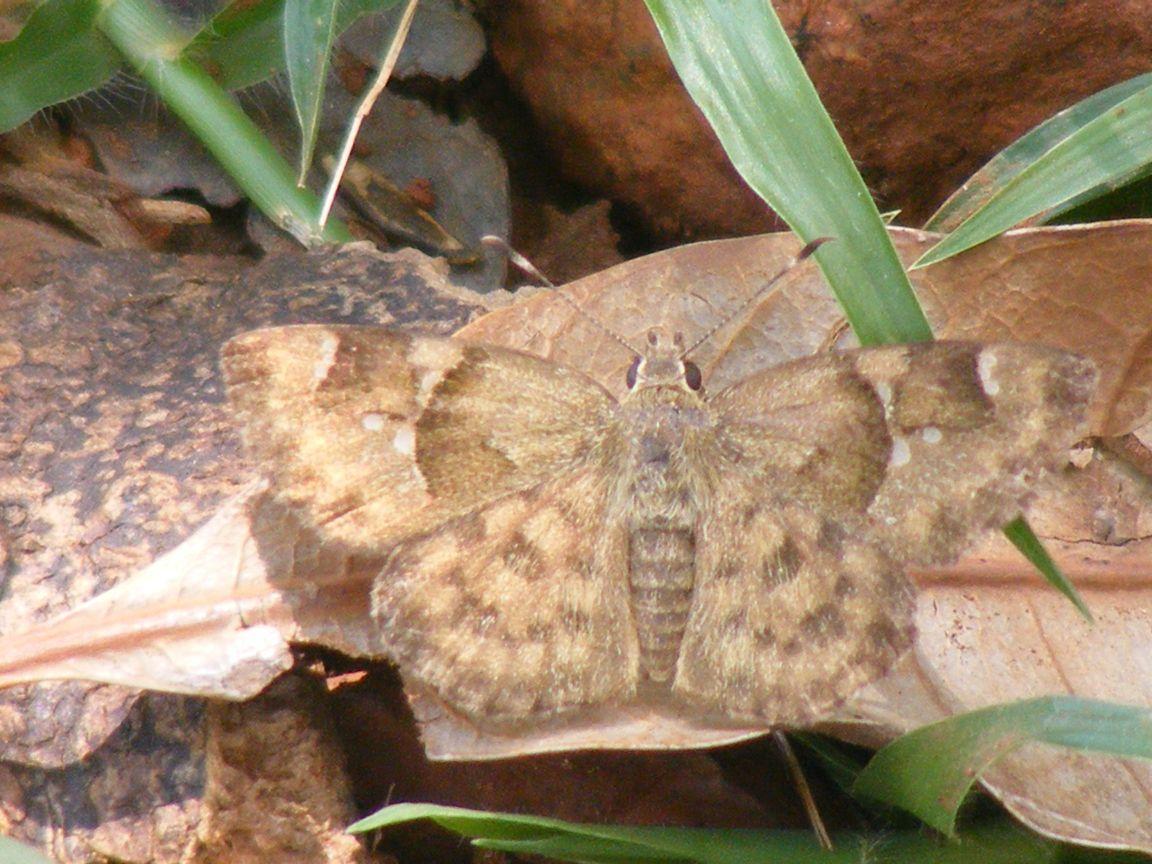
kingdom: Animalia
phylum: Arthropoda
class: Insecta
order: Lepidoptera
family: Hesperiidae
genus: Sarangesa
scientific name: Sarangesa phidyle
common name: Small elfin
